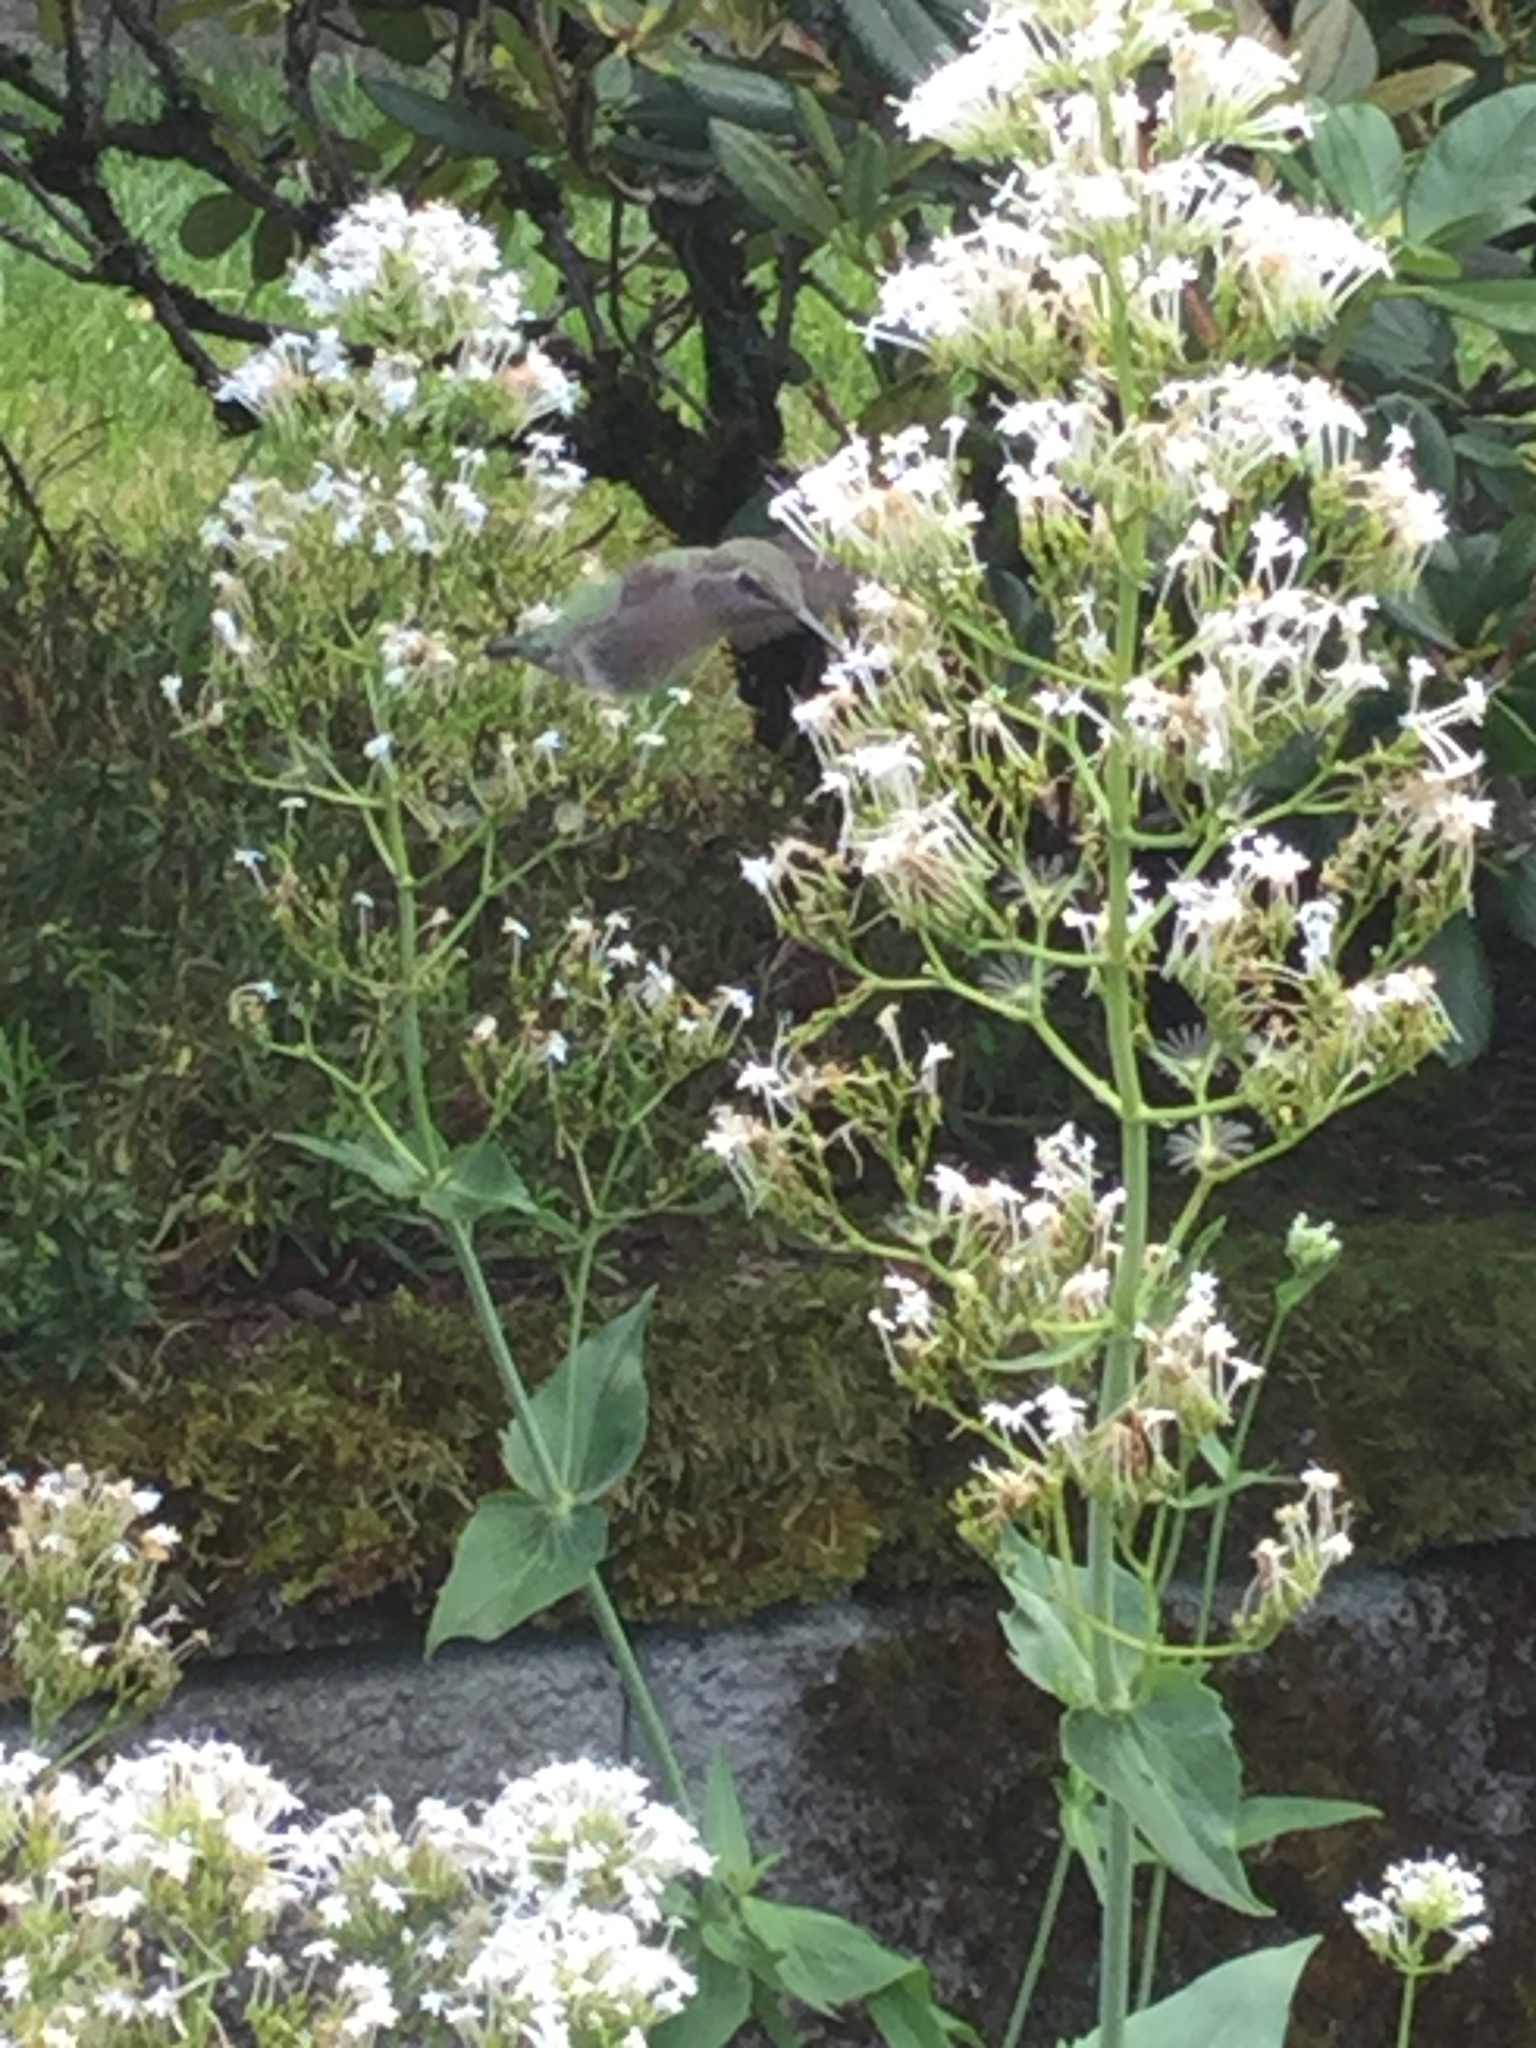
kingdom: Animalia
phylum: Chordata
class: Aves
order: Apodiformes
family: Trochilidae
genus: Calypte
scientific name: Calypte anna
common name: Anna's hummingbird
